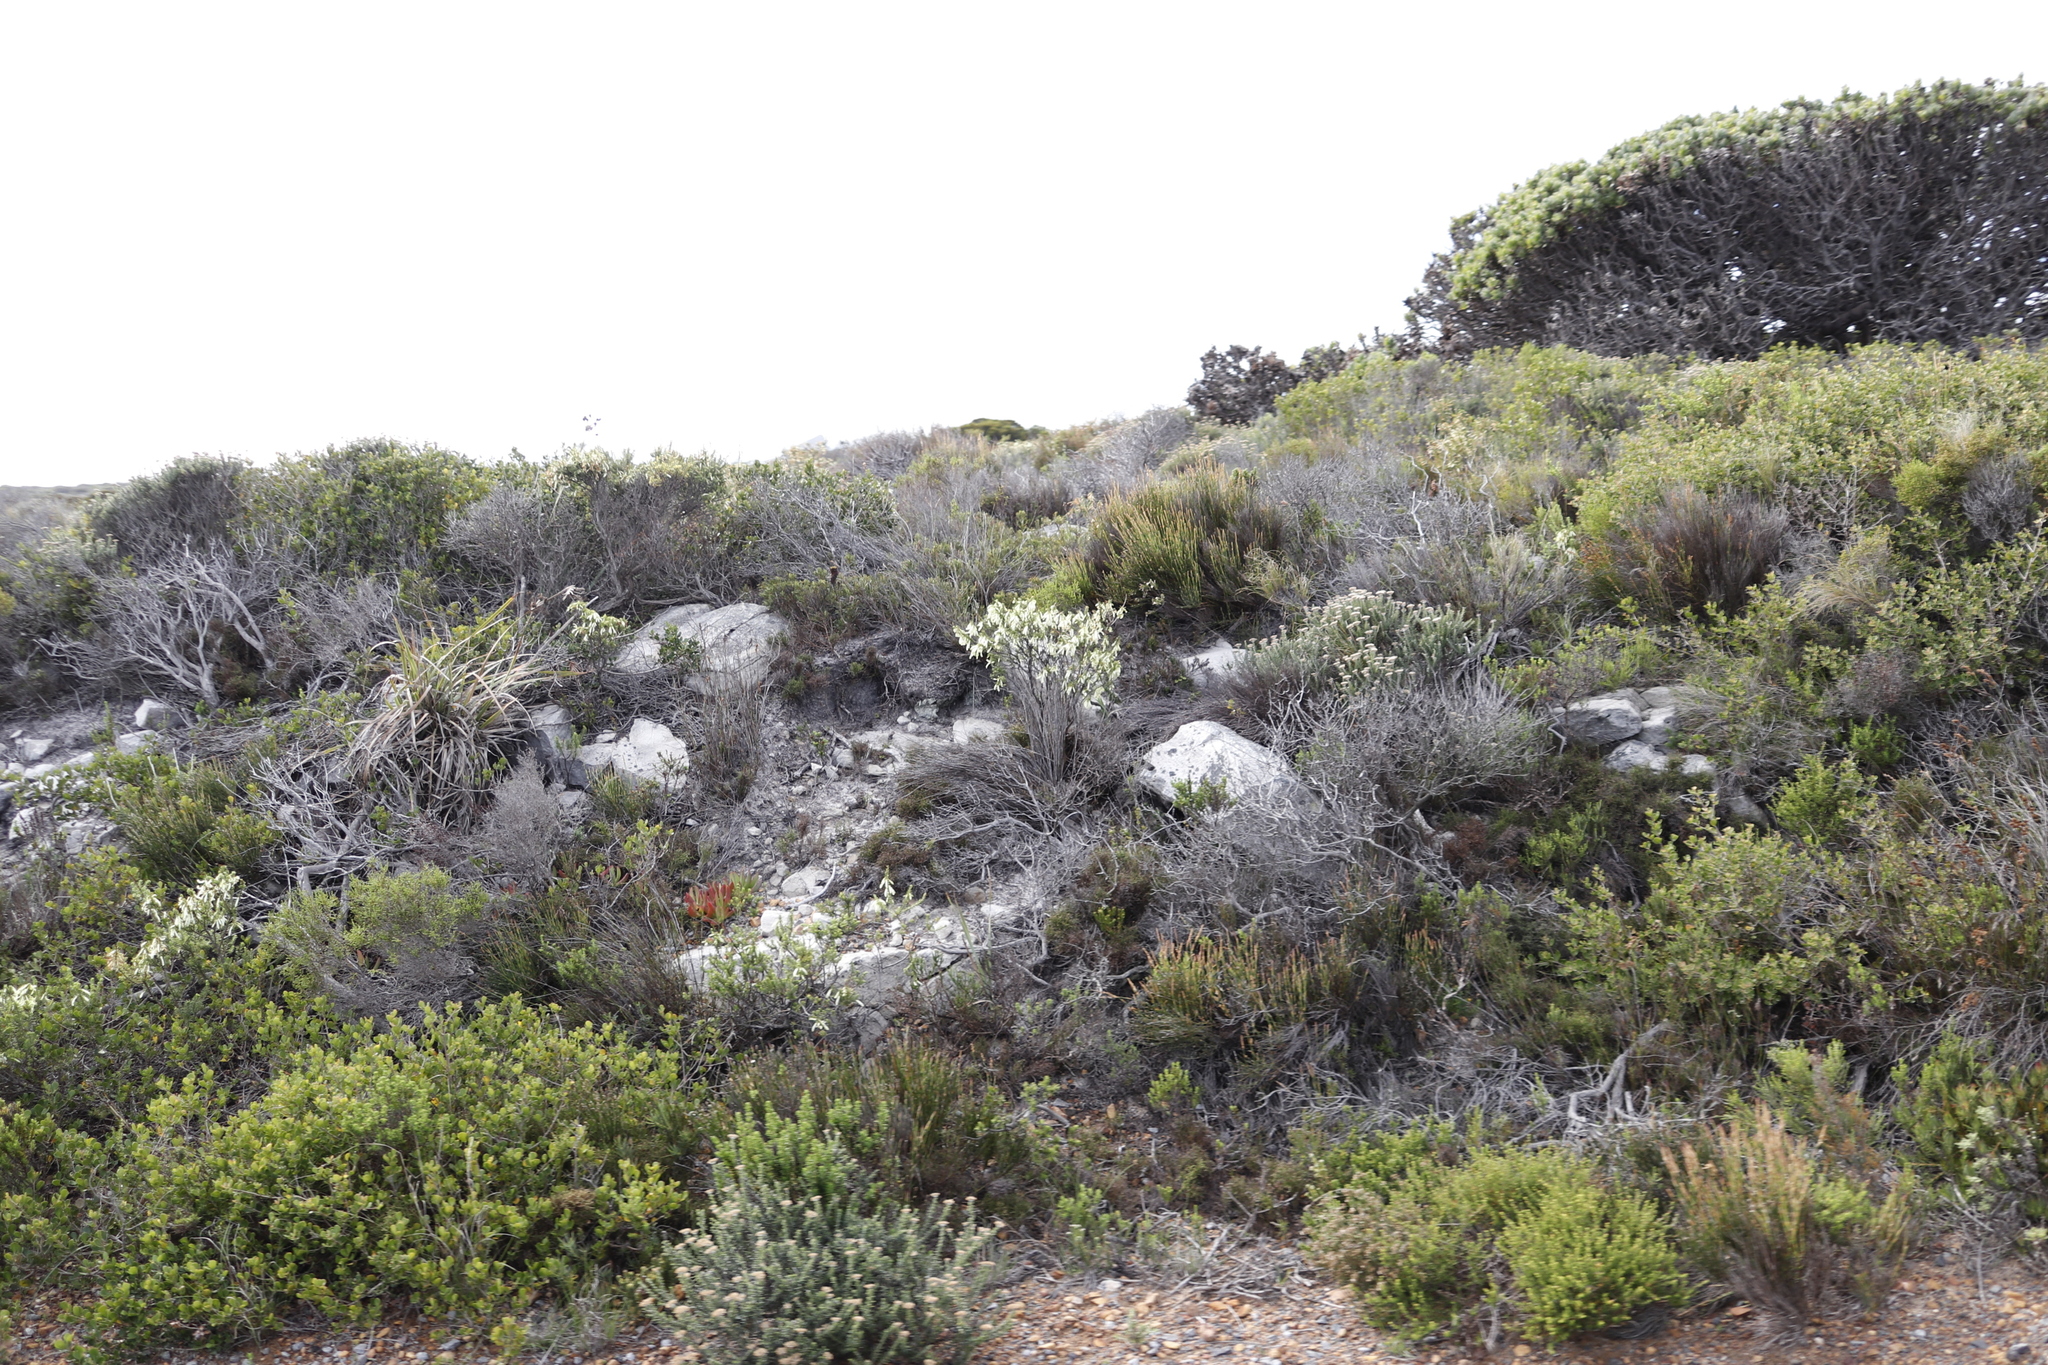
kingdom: Plantae
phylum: Tracheophyta
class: Magnoliopsida
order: Ericales
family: Ericaceae
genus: Erica
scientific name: Erica mammosa
